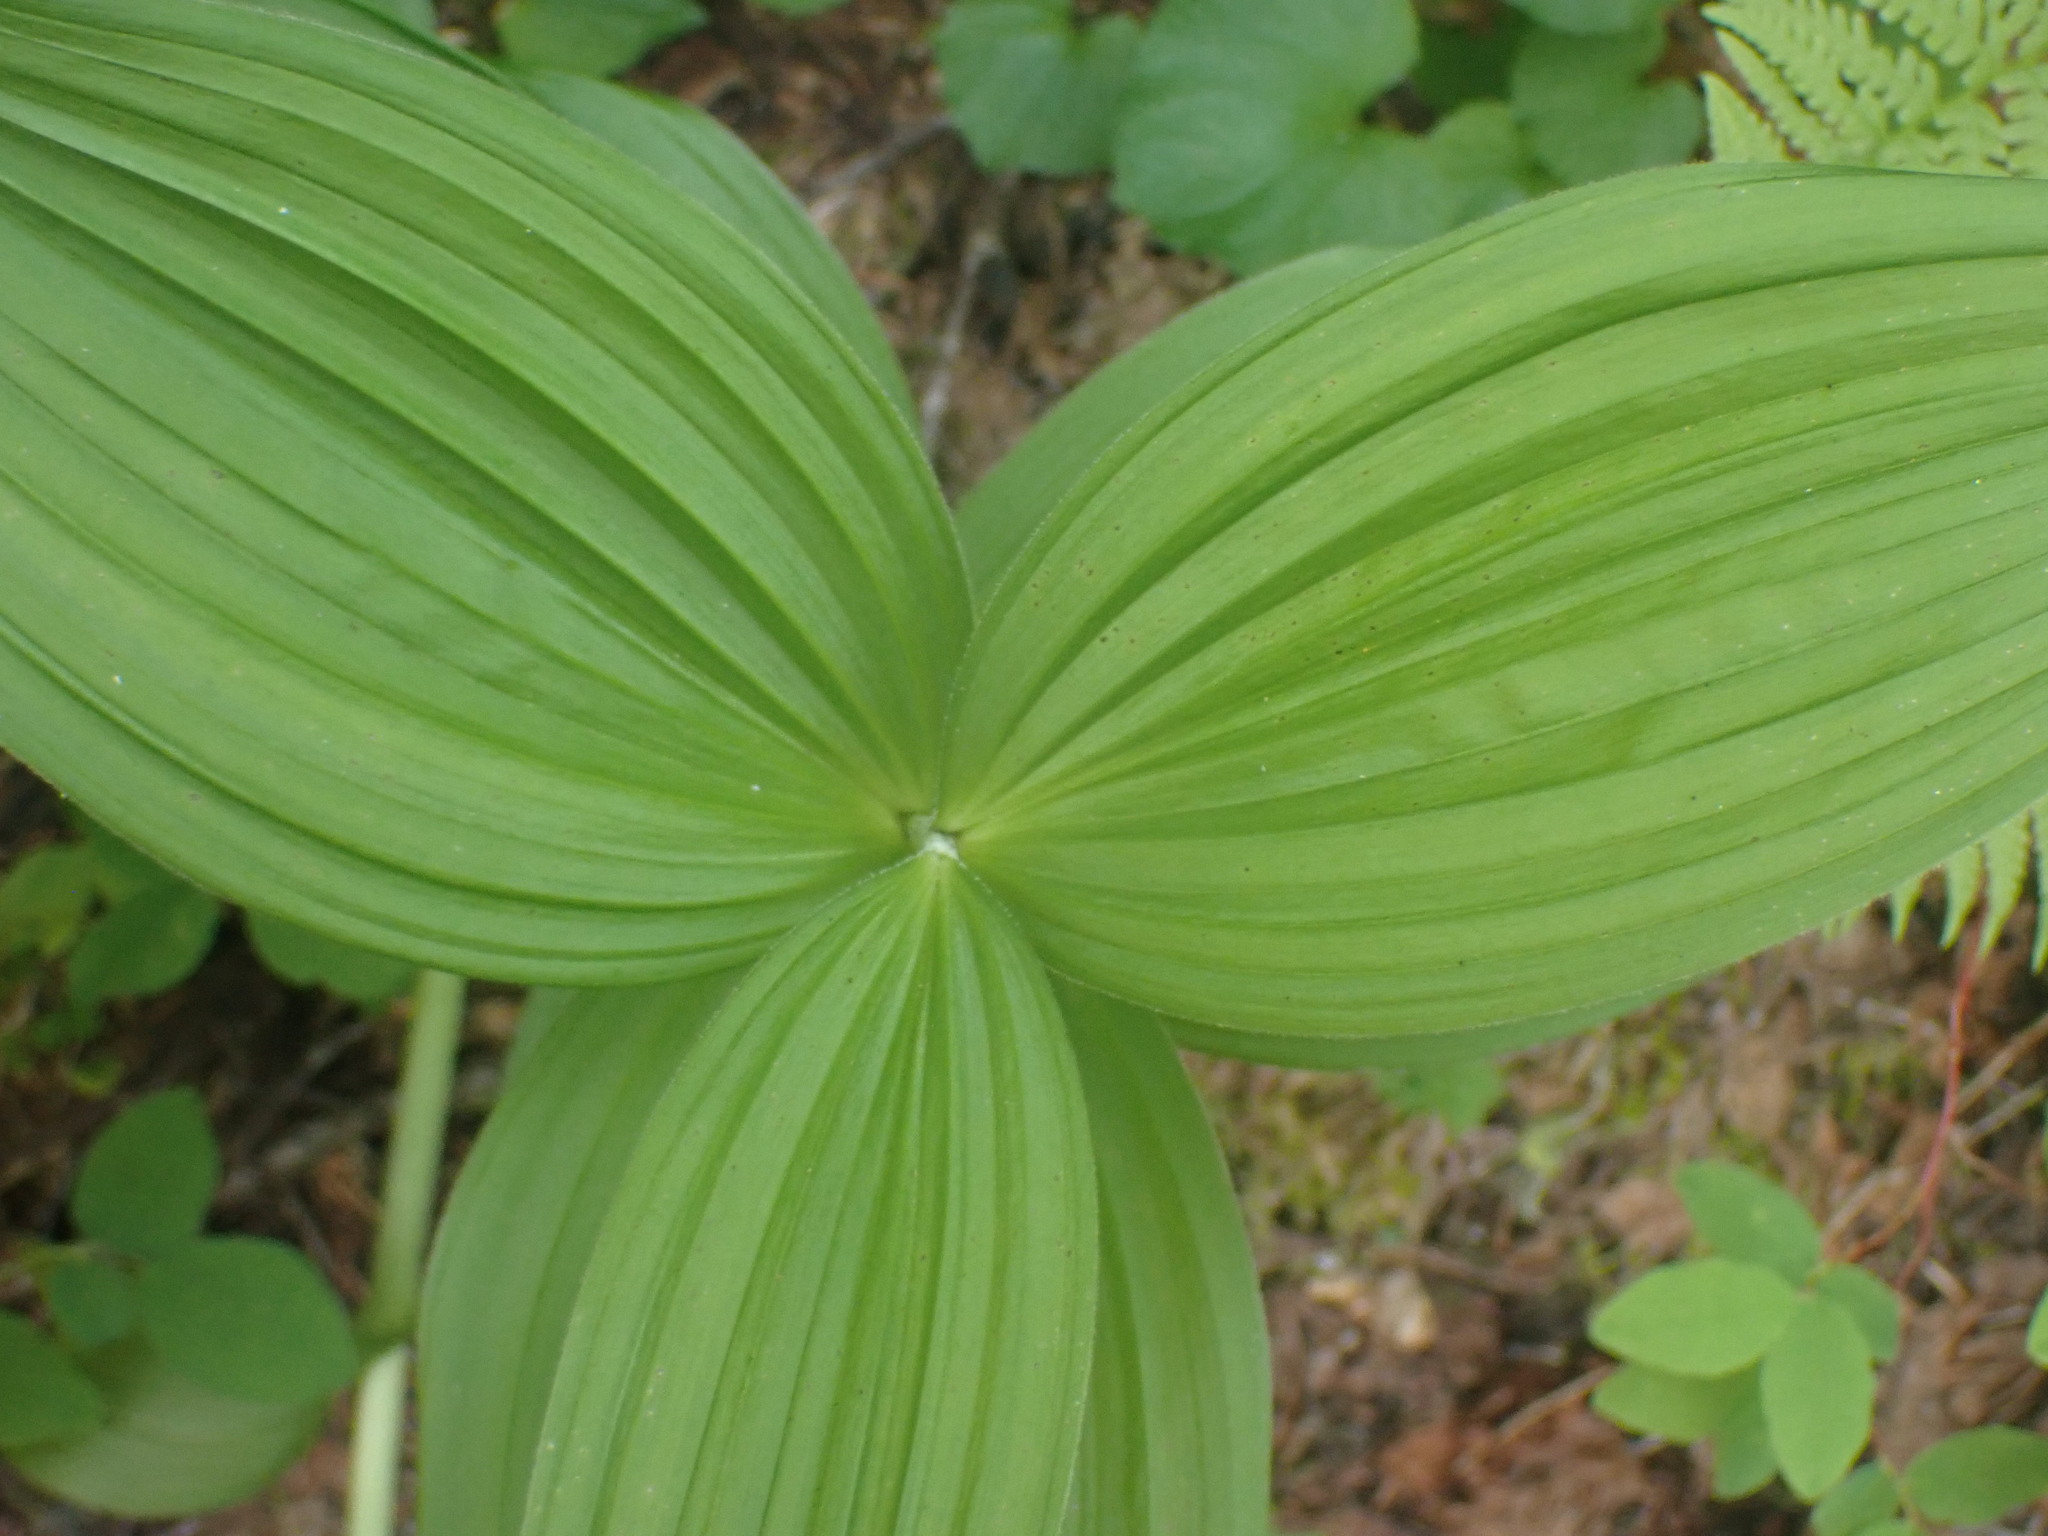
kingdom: Plantae
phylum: Tracheophyta
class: Liliopsida
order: Liliales
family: Melanthiaceae
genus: Veratrum
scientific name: Veratrum viride
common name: American false hellebore
